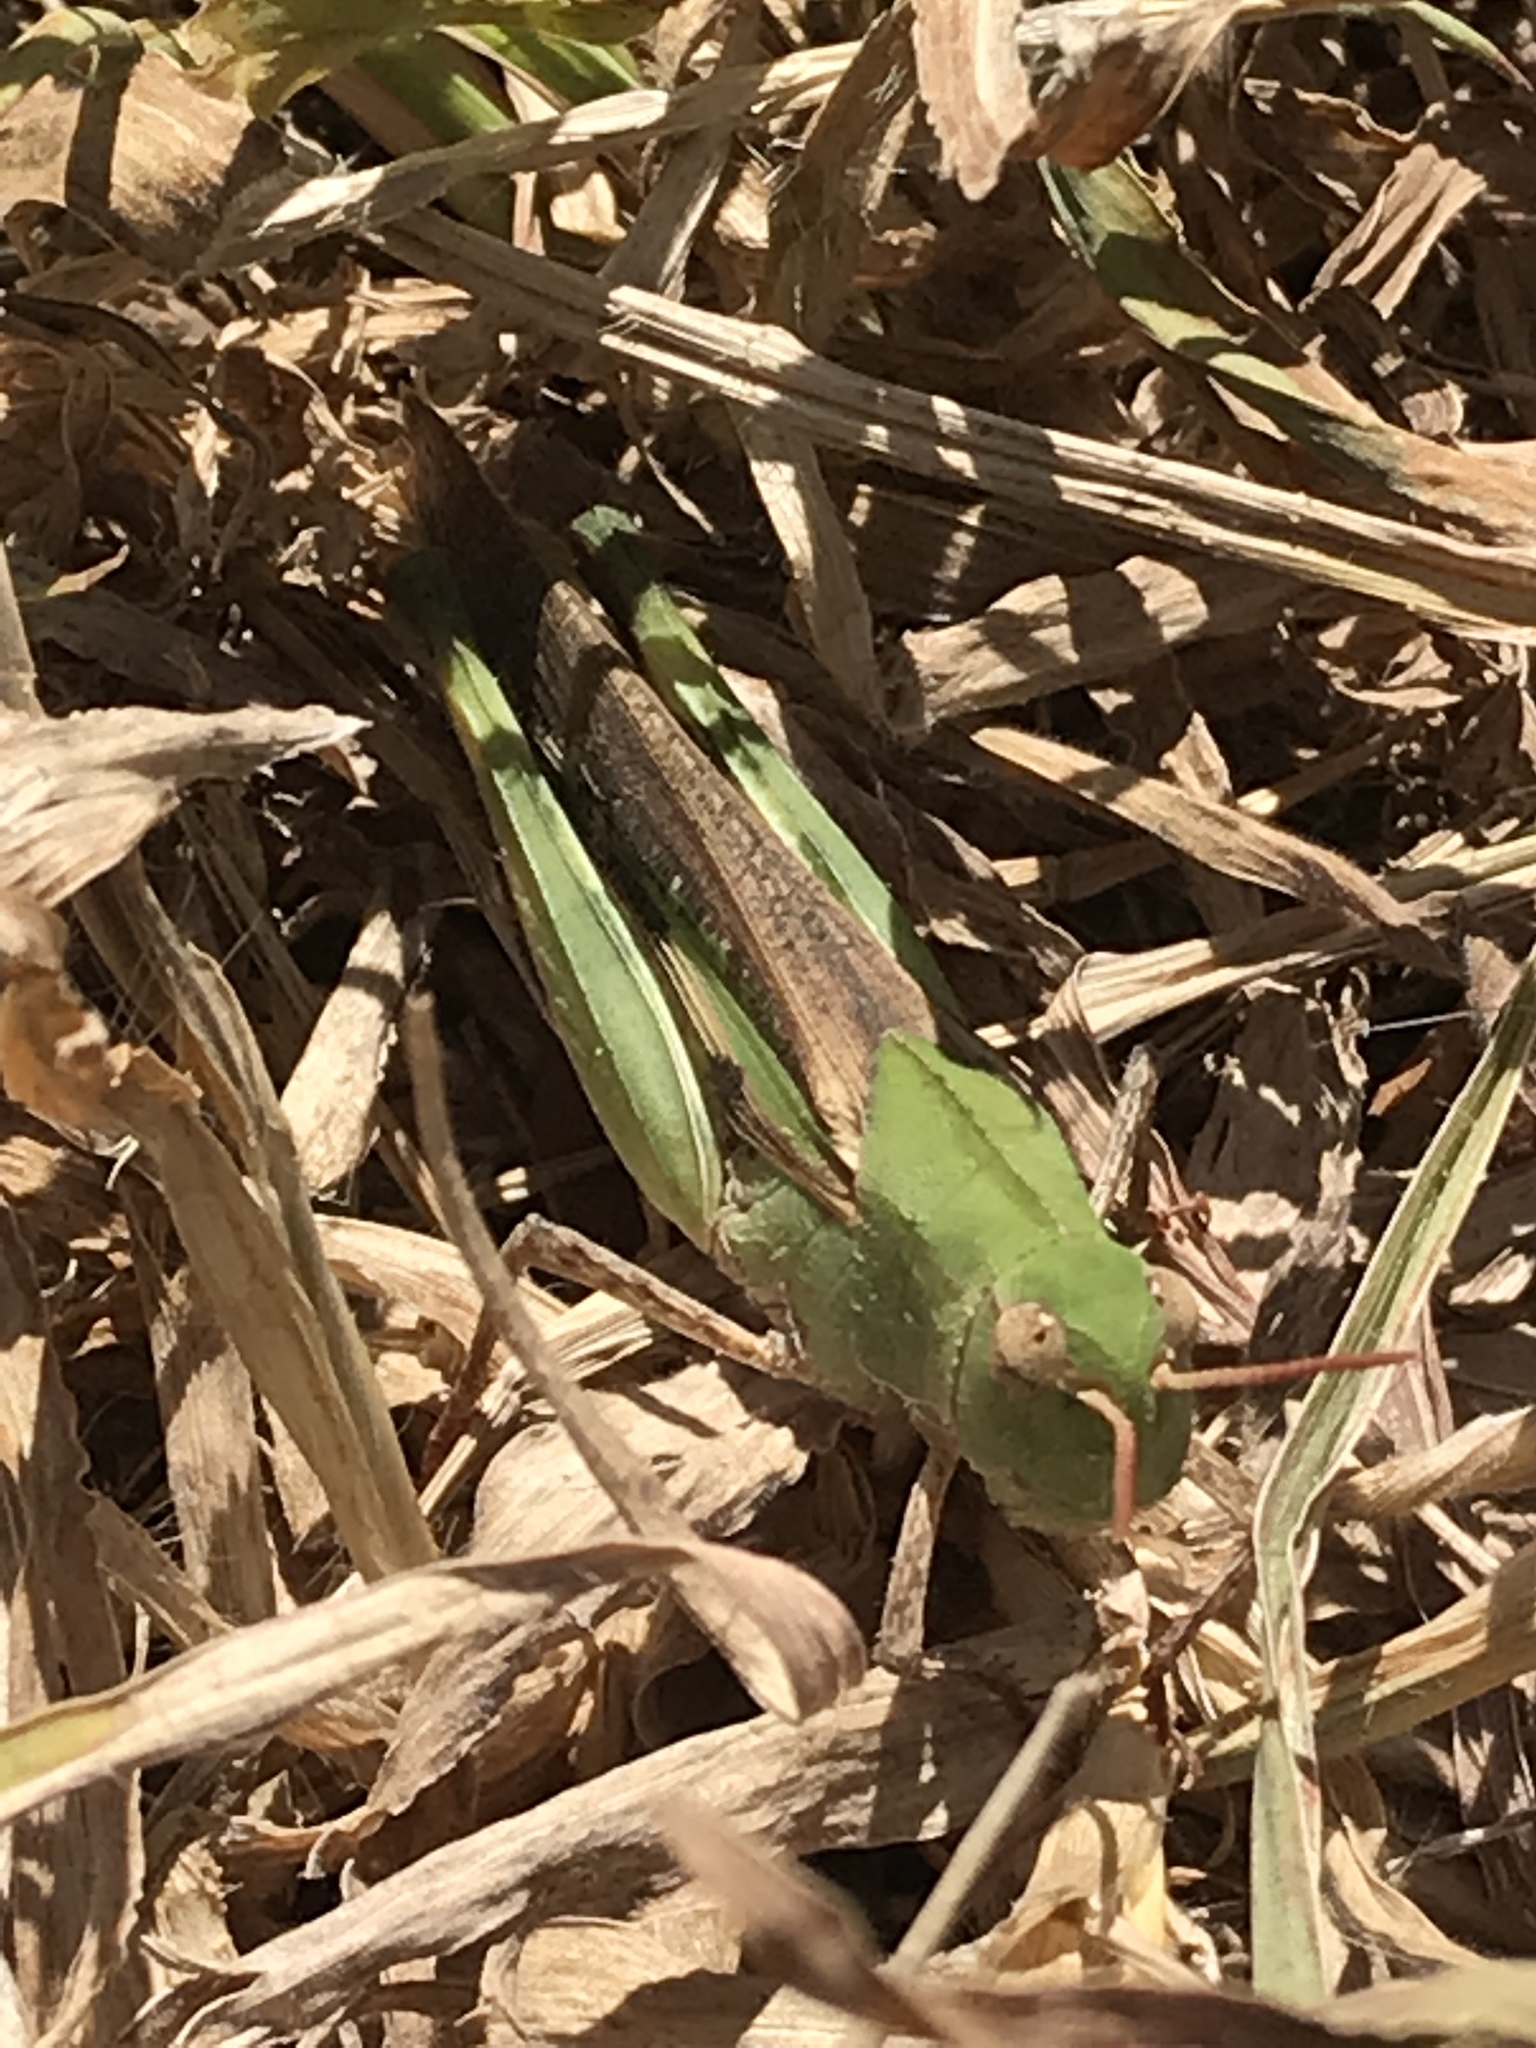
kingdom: Animalia
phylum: Arthropoda
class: Insecta
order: Orthoptera
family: Acrididae
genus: Chortophaga
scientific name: Chortophaga viridifasciata
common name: Green-striped grasshopper
